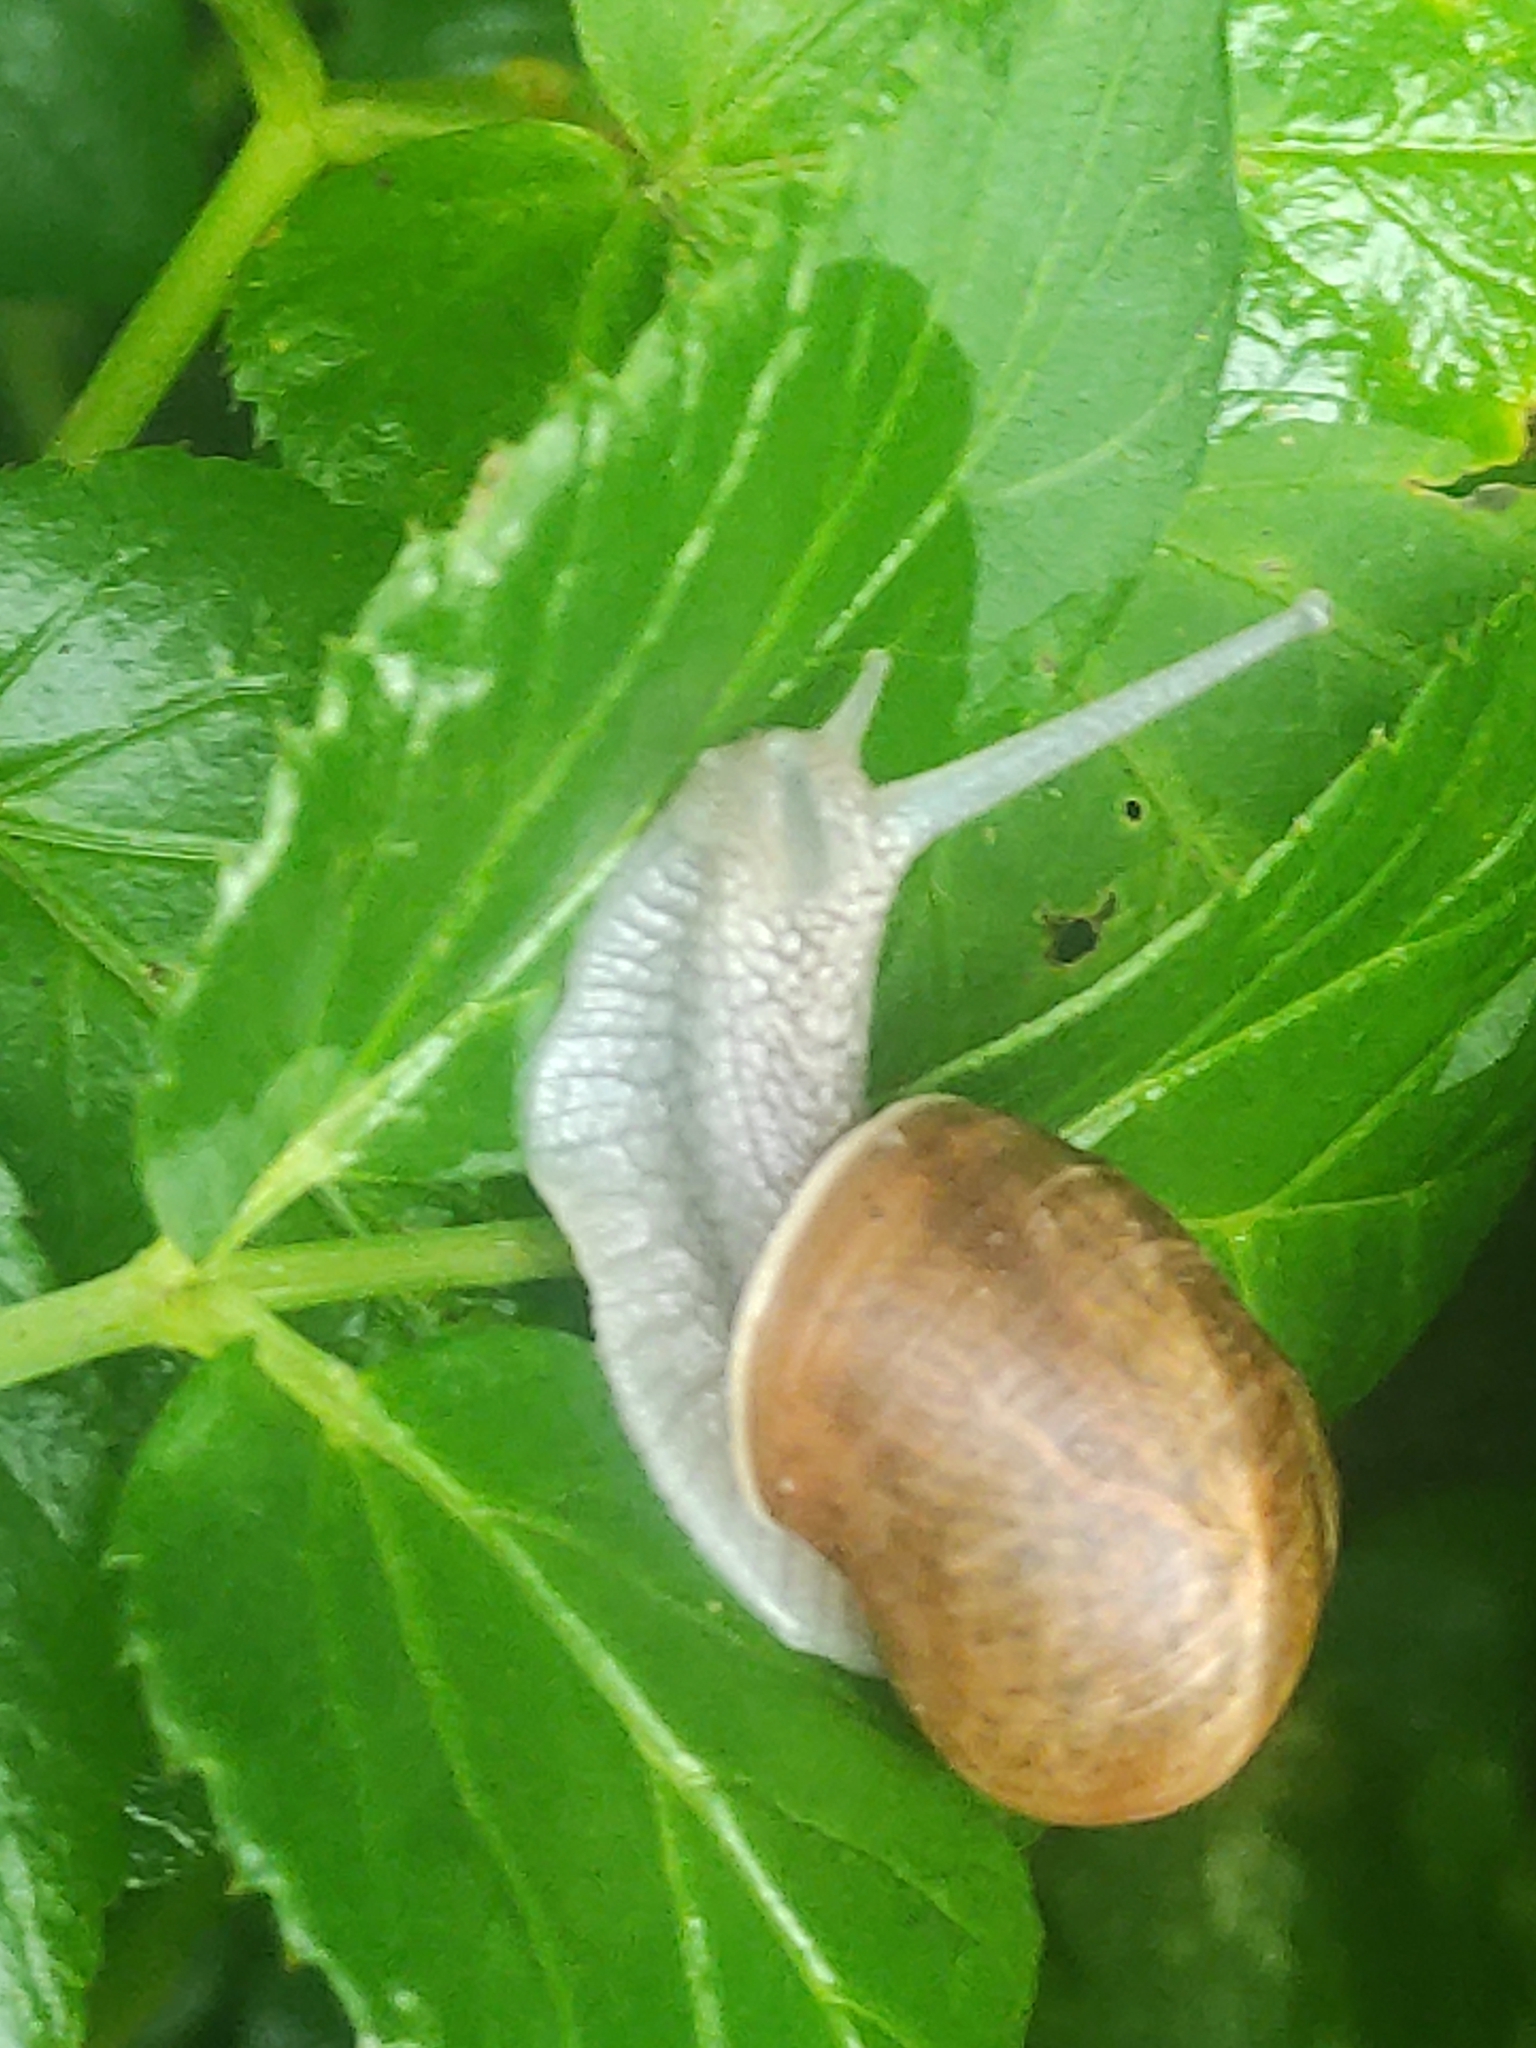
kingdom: Animalia
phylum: Mollusca
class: Gastropoda
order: Stylommatophora
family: Helicidae
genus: Helix
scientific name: Helix pomatia
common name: Roman snail
